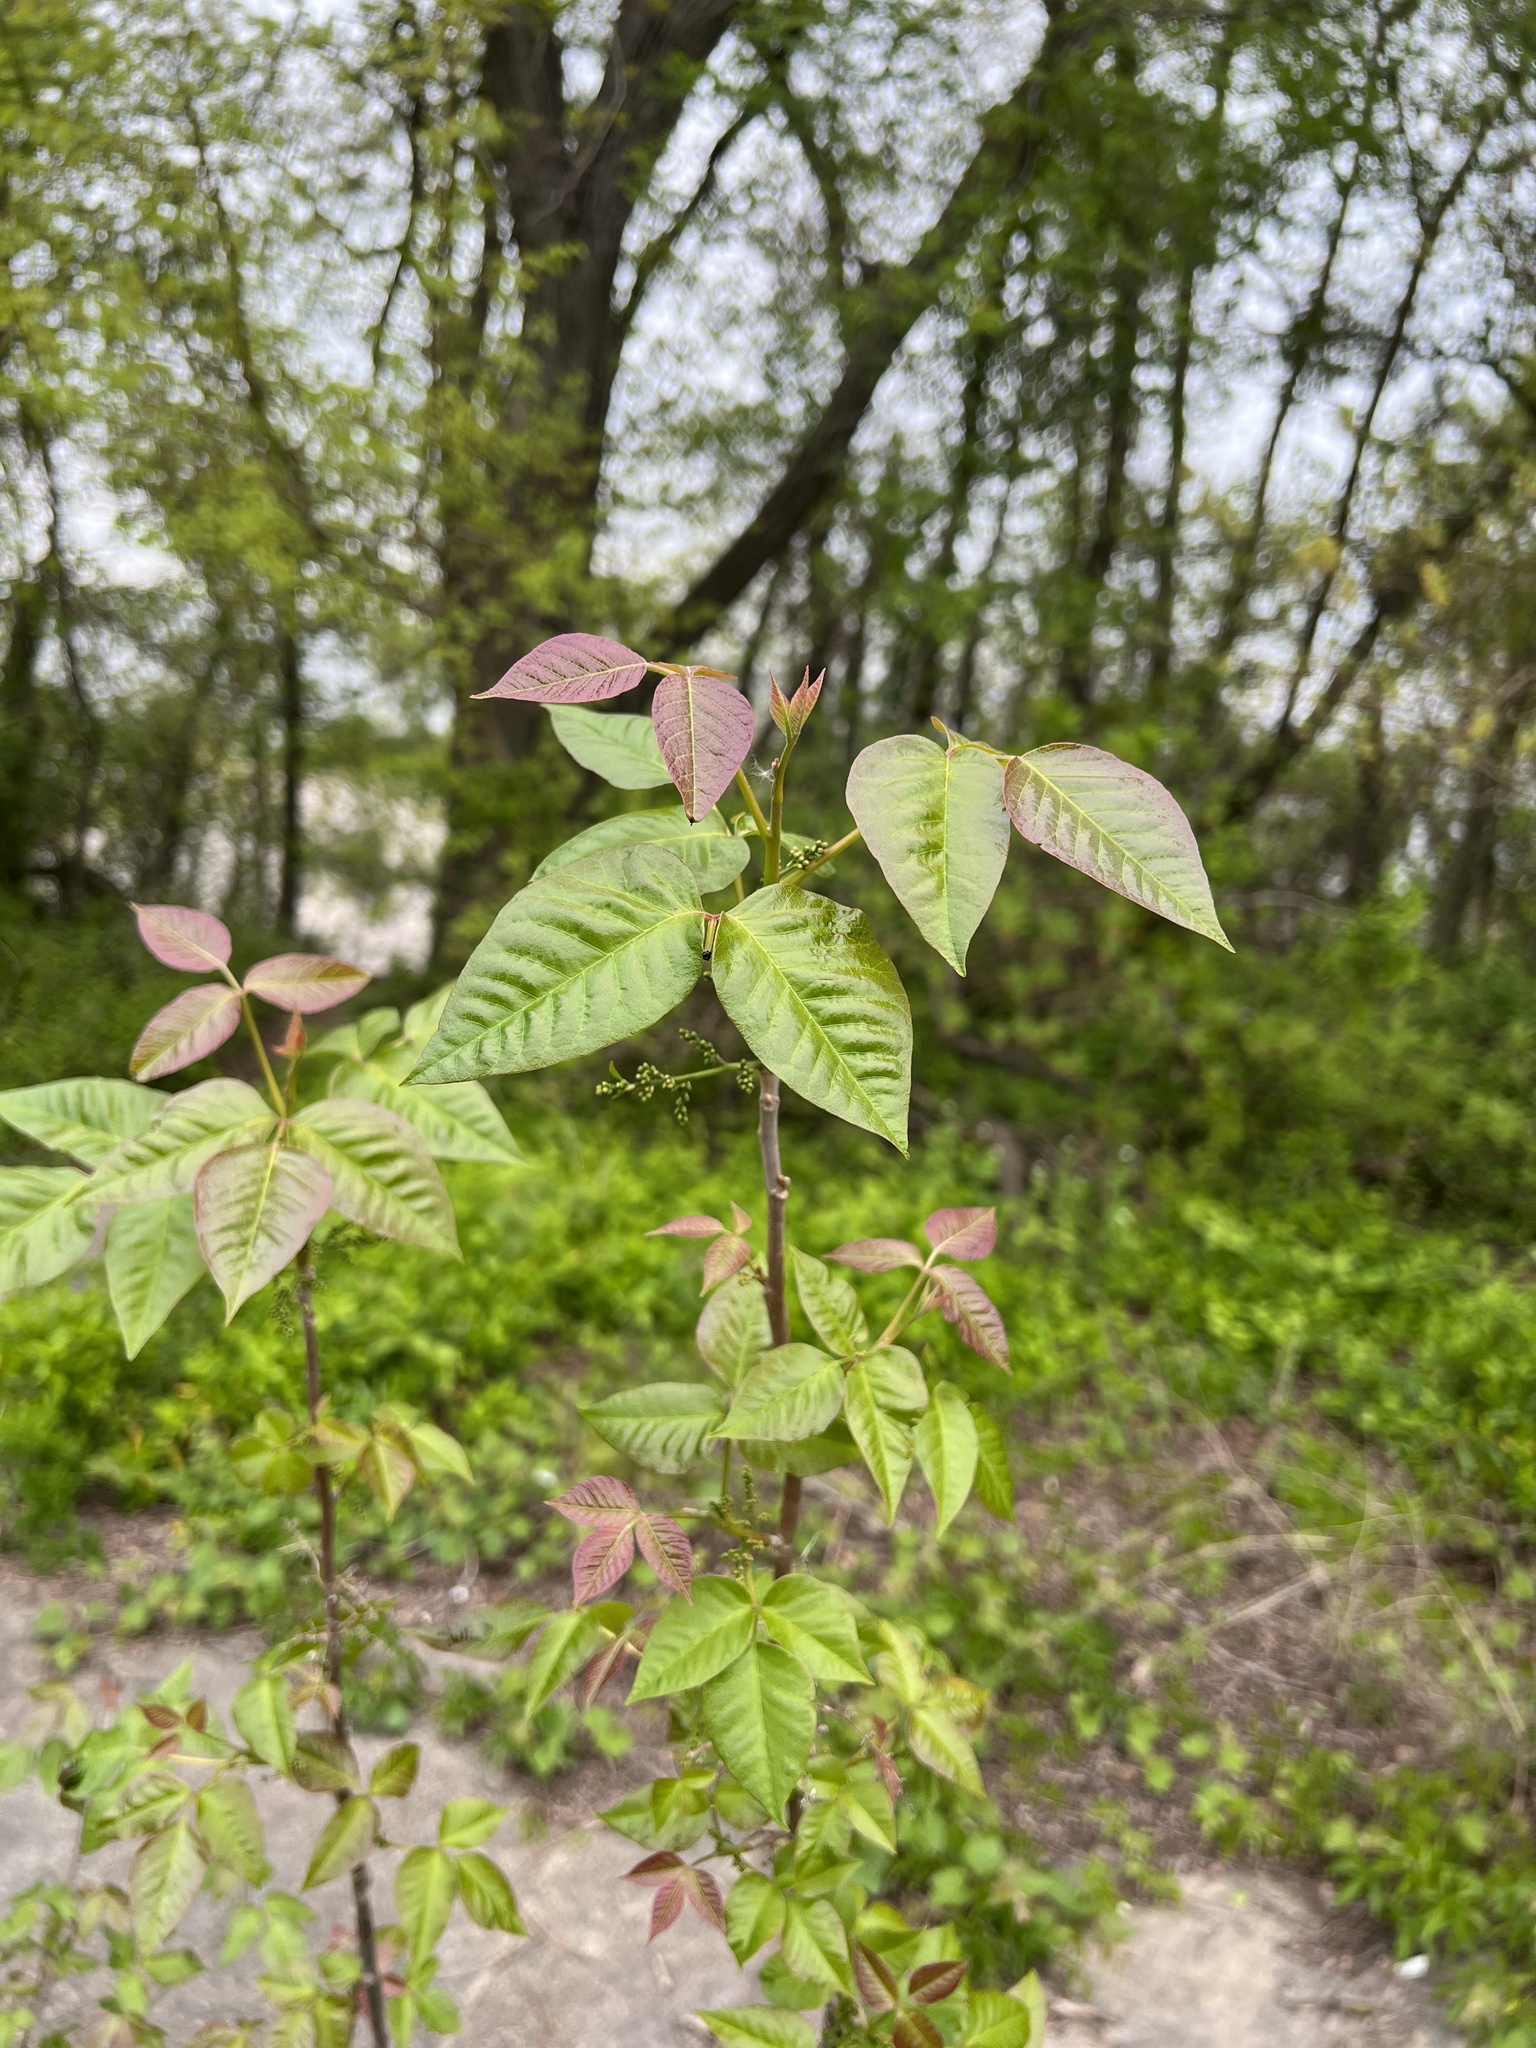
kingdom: Plantae
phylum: Tracheophyta
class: Magnoliopsida
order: Sapindales
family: Anacardiaceae
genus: Toxicodendron
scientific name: Toxicodendron radicans
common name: Poison ivy
